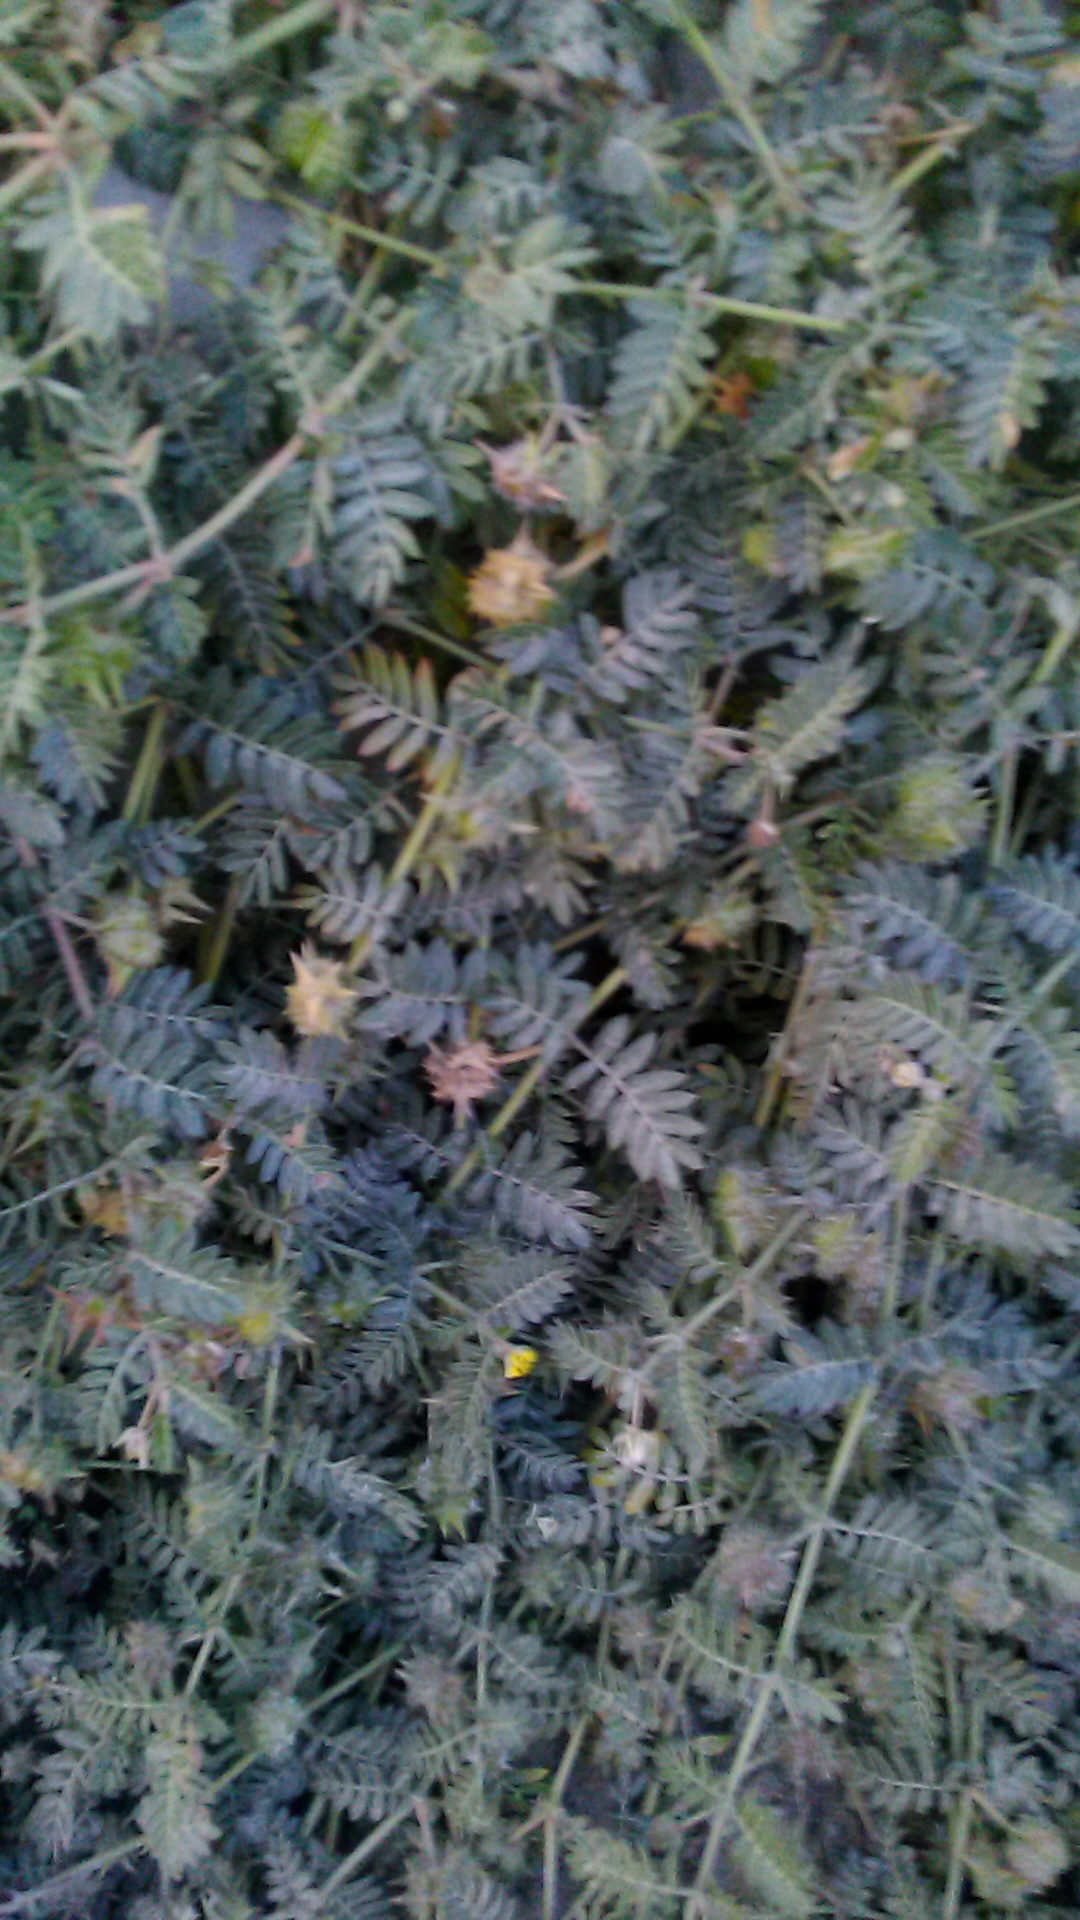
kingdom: Plantae
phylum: Tracheophyta
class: Magnoliopsida
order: Zygophyllales
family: Zygophyllaceae
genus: Tribulus
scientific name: Tribulus terrestris
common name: Puncturevine
